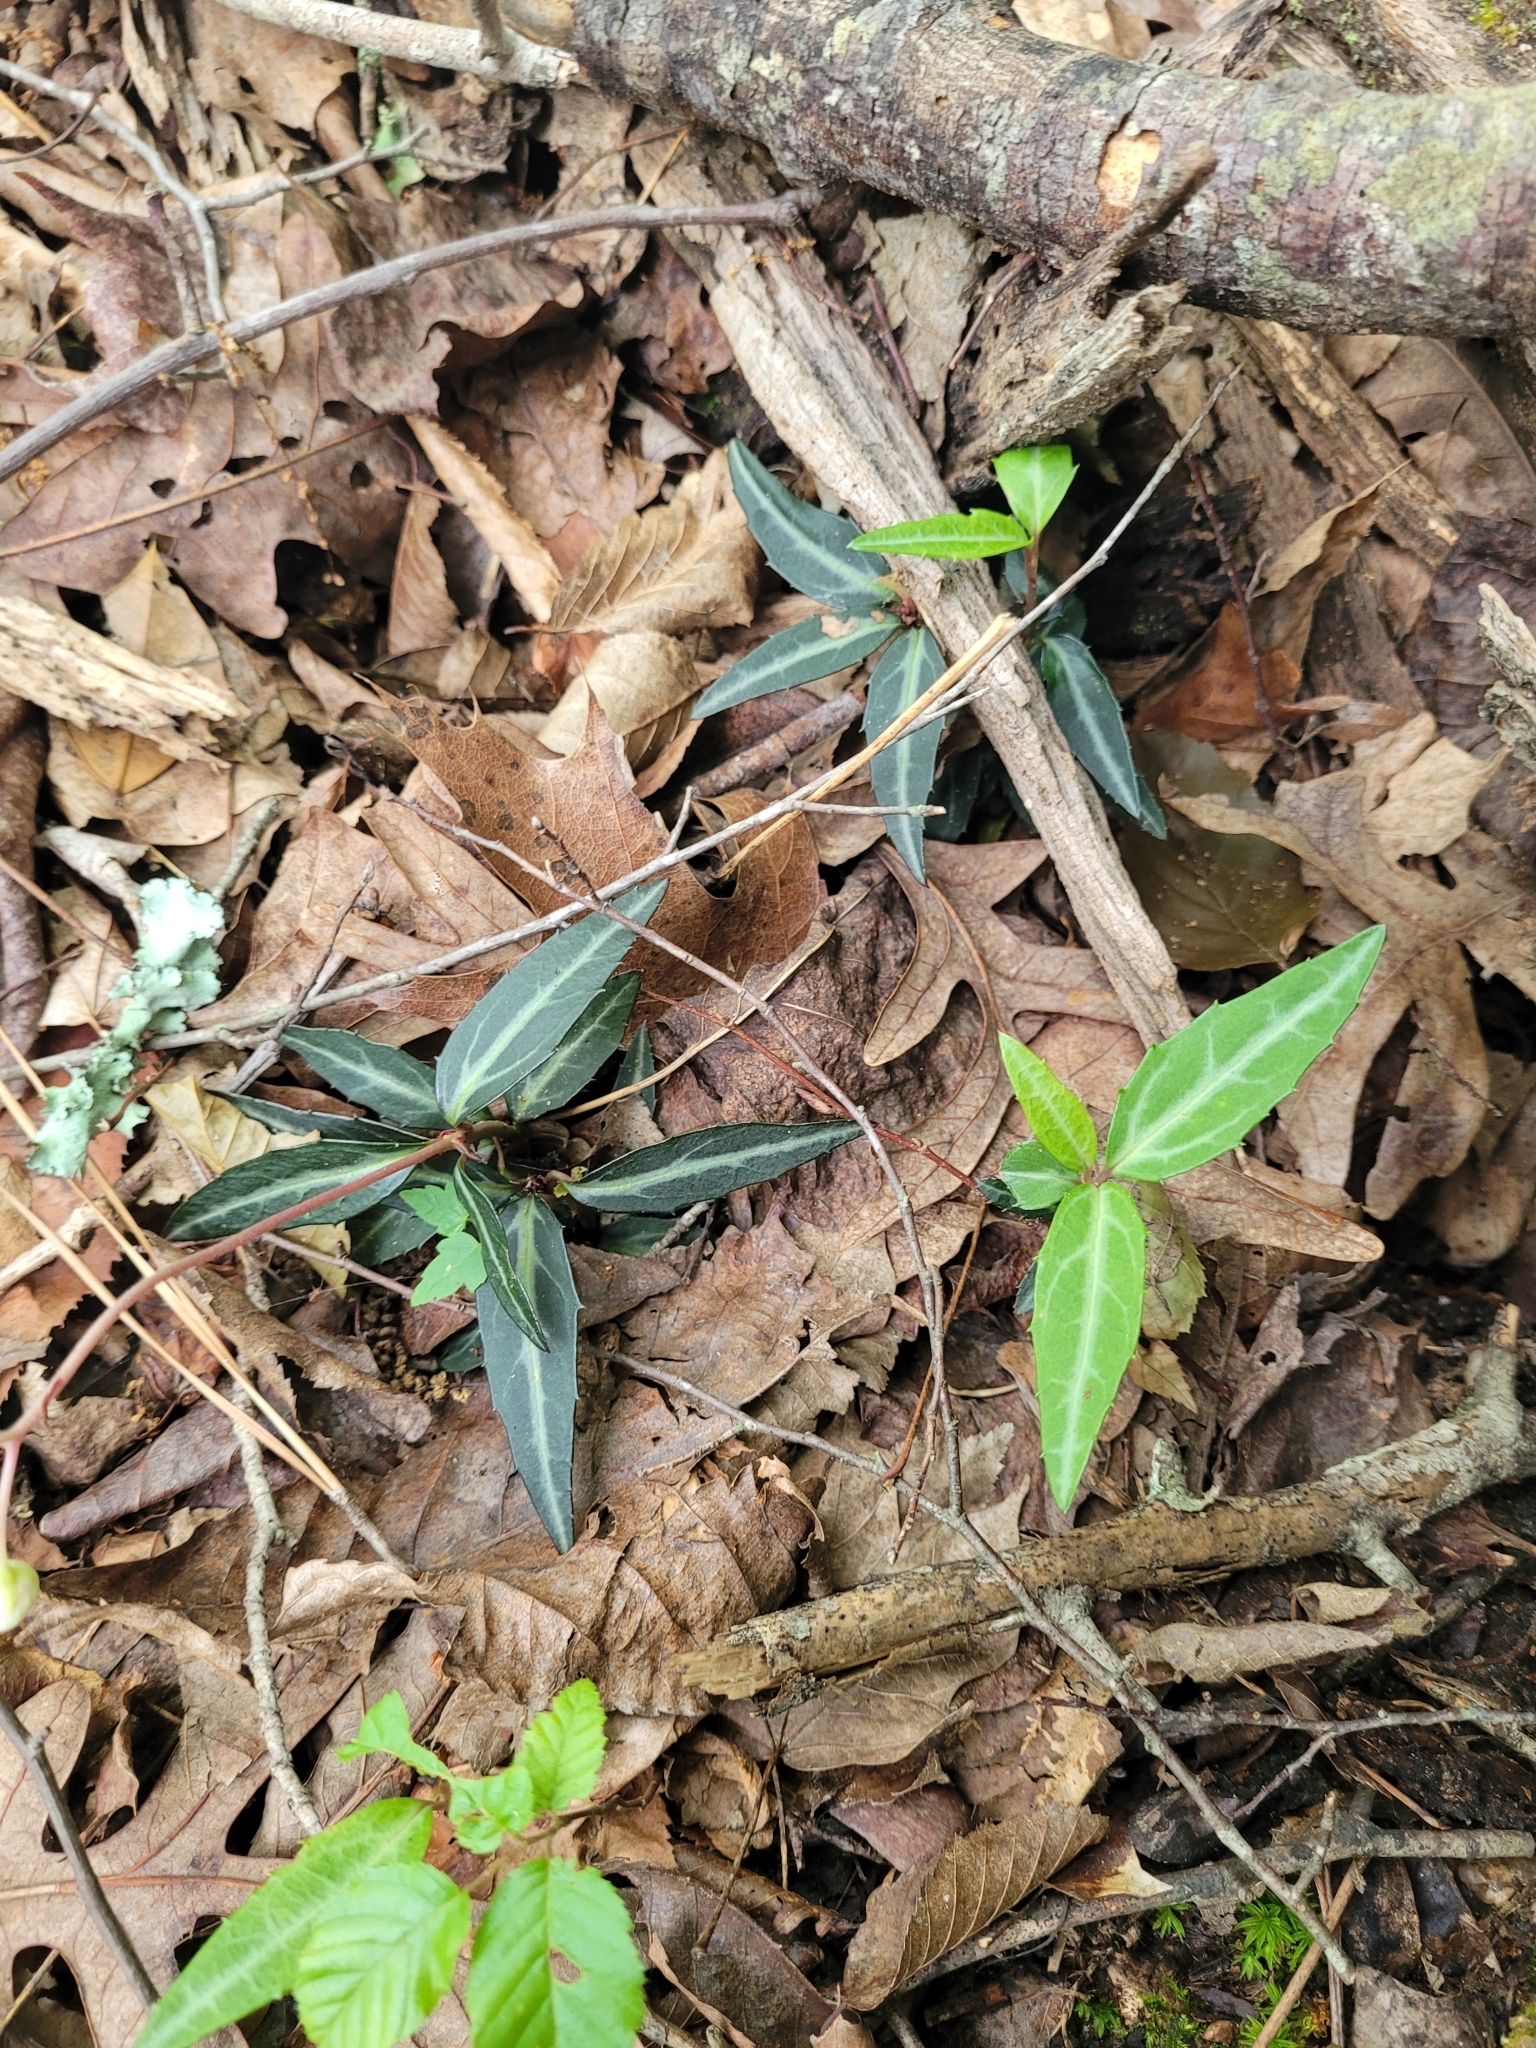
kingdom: Plantae
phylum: Tracheophyta
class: Magnoliopsida
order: Ericales
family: Ericaceae
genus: Chimaphila
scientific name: Chimaphila maculata
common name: Spotted pipsissewa
